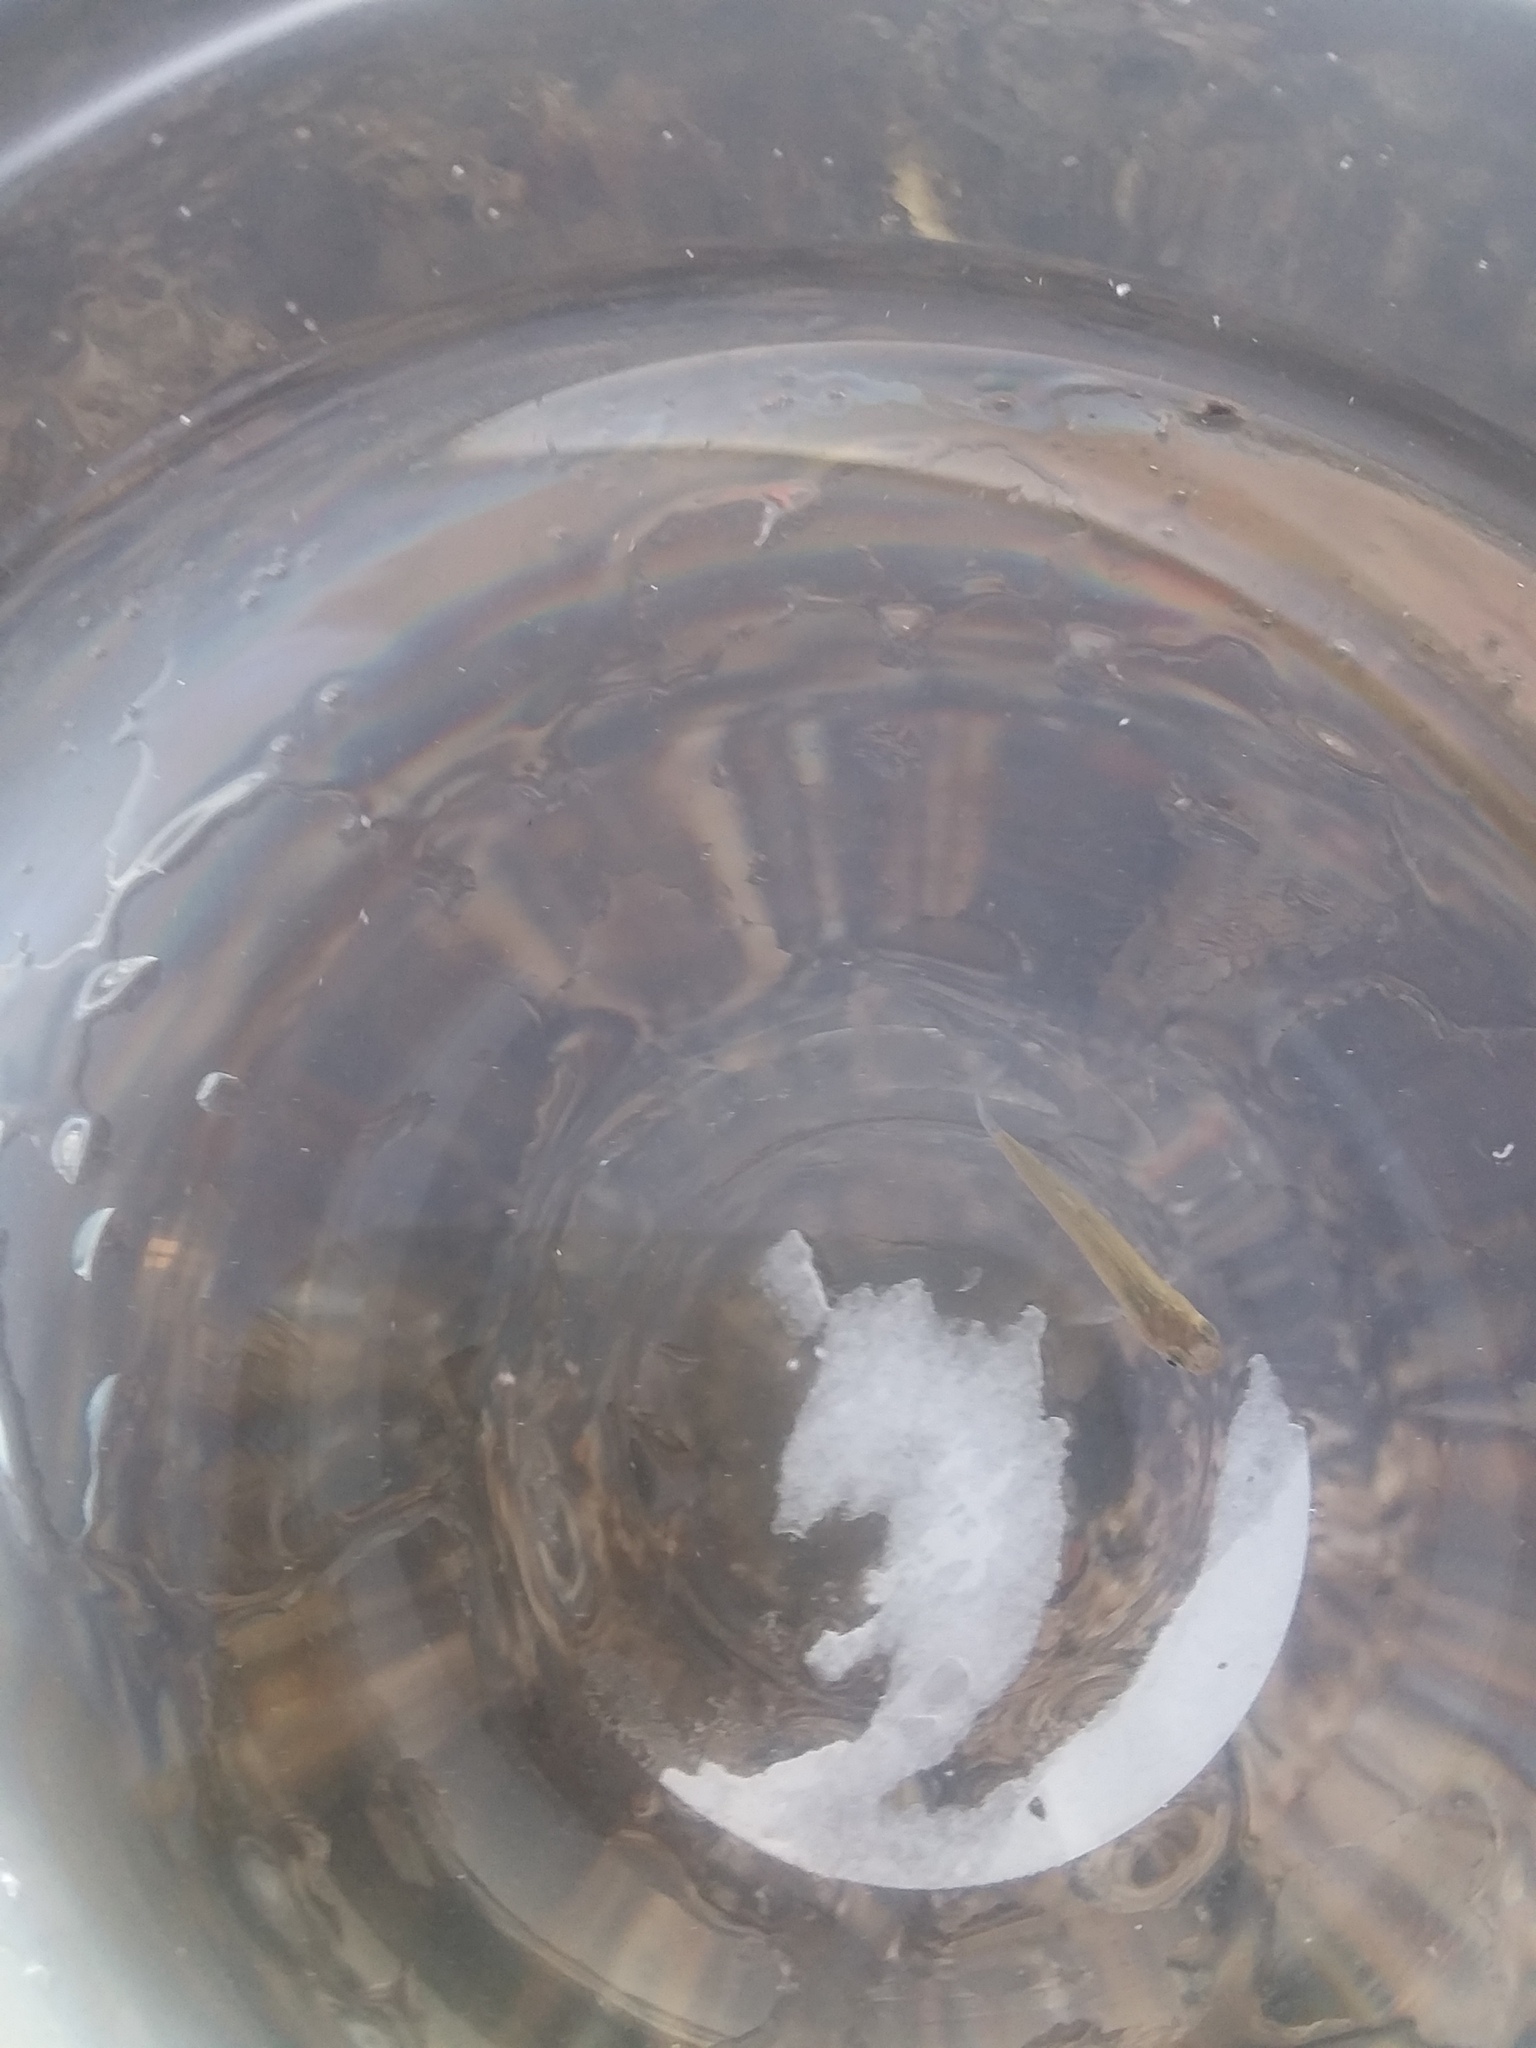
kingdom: Animalia
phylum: Chordata
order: Cyprinodontiformes
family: Poeciliidae
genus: Gambusia
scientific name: Gambusia holbrooki
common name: Eastern mosquitofish
